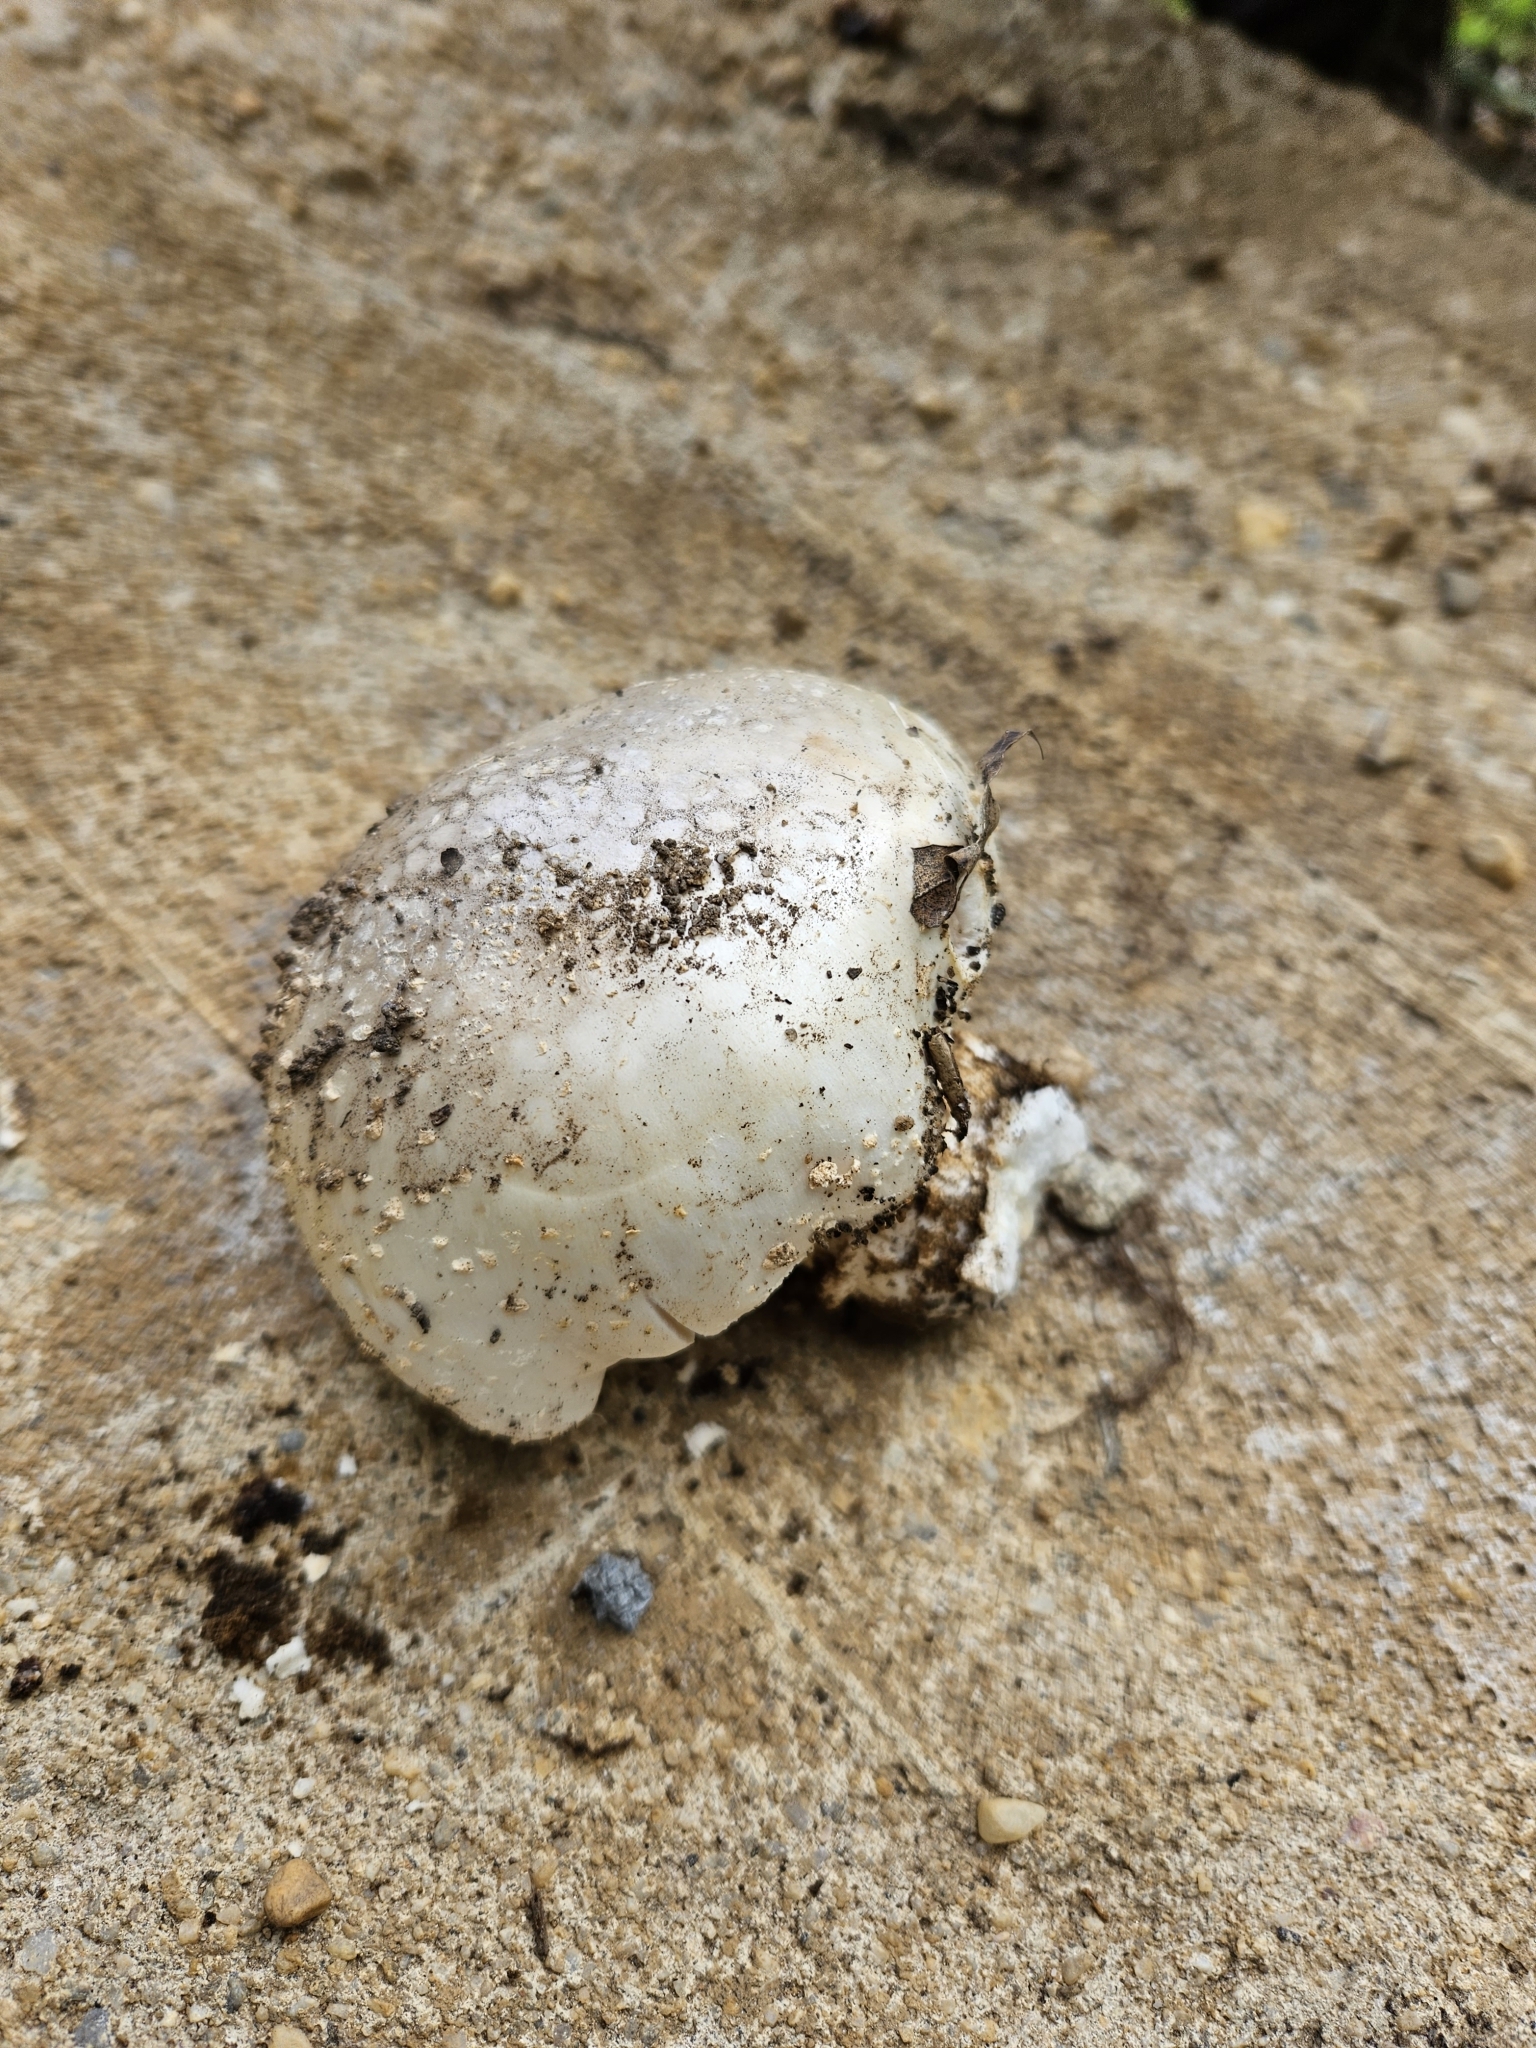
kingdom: Fungi
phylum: Basidiomycota
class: Agaricomycetes
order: Agaricales
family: Amanitaceae
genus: Amanita
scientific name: Amanita canescens
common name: Golden threads lepidella
